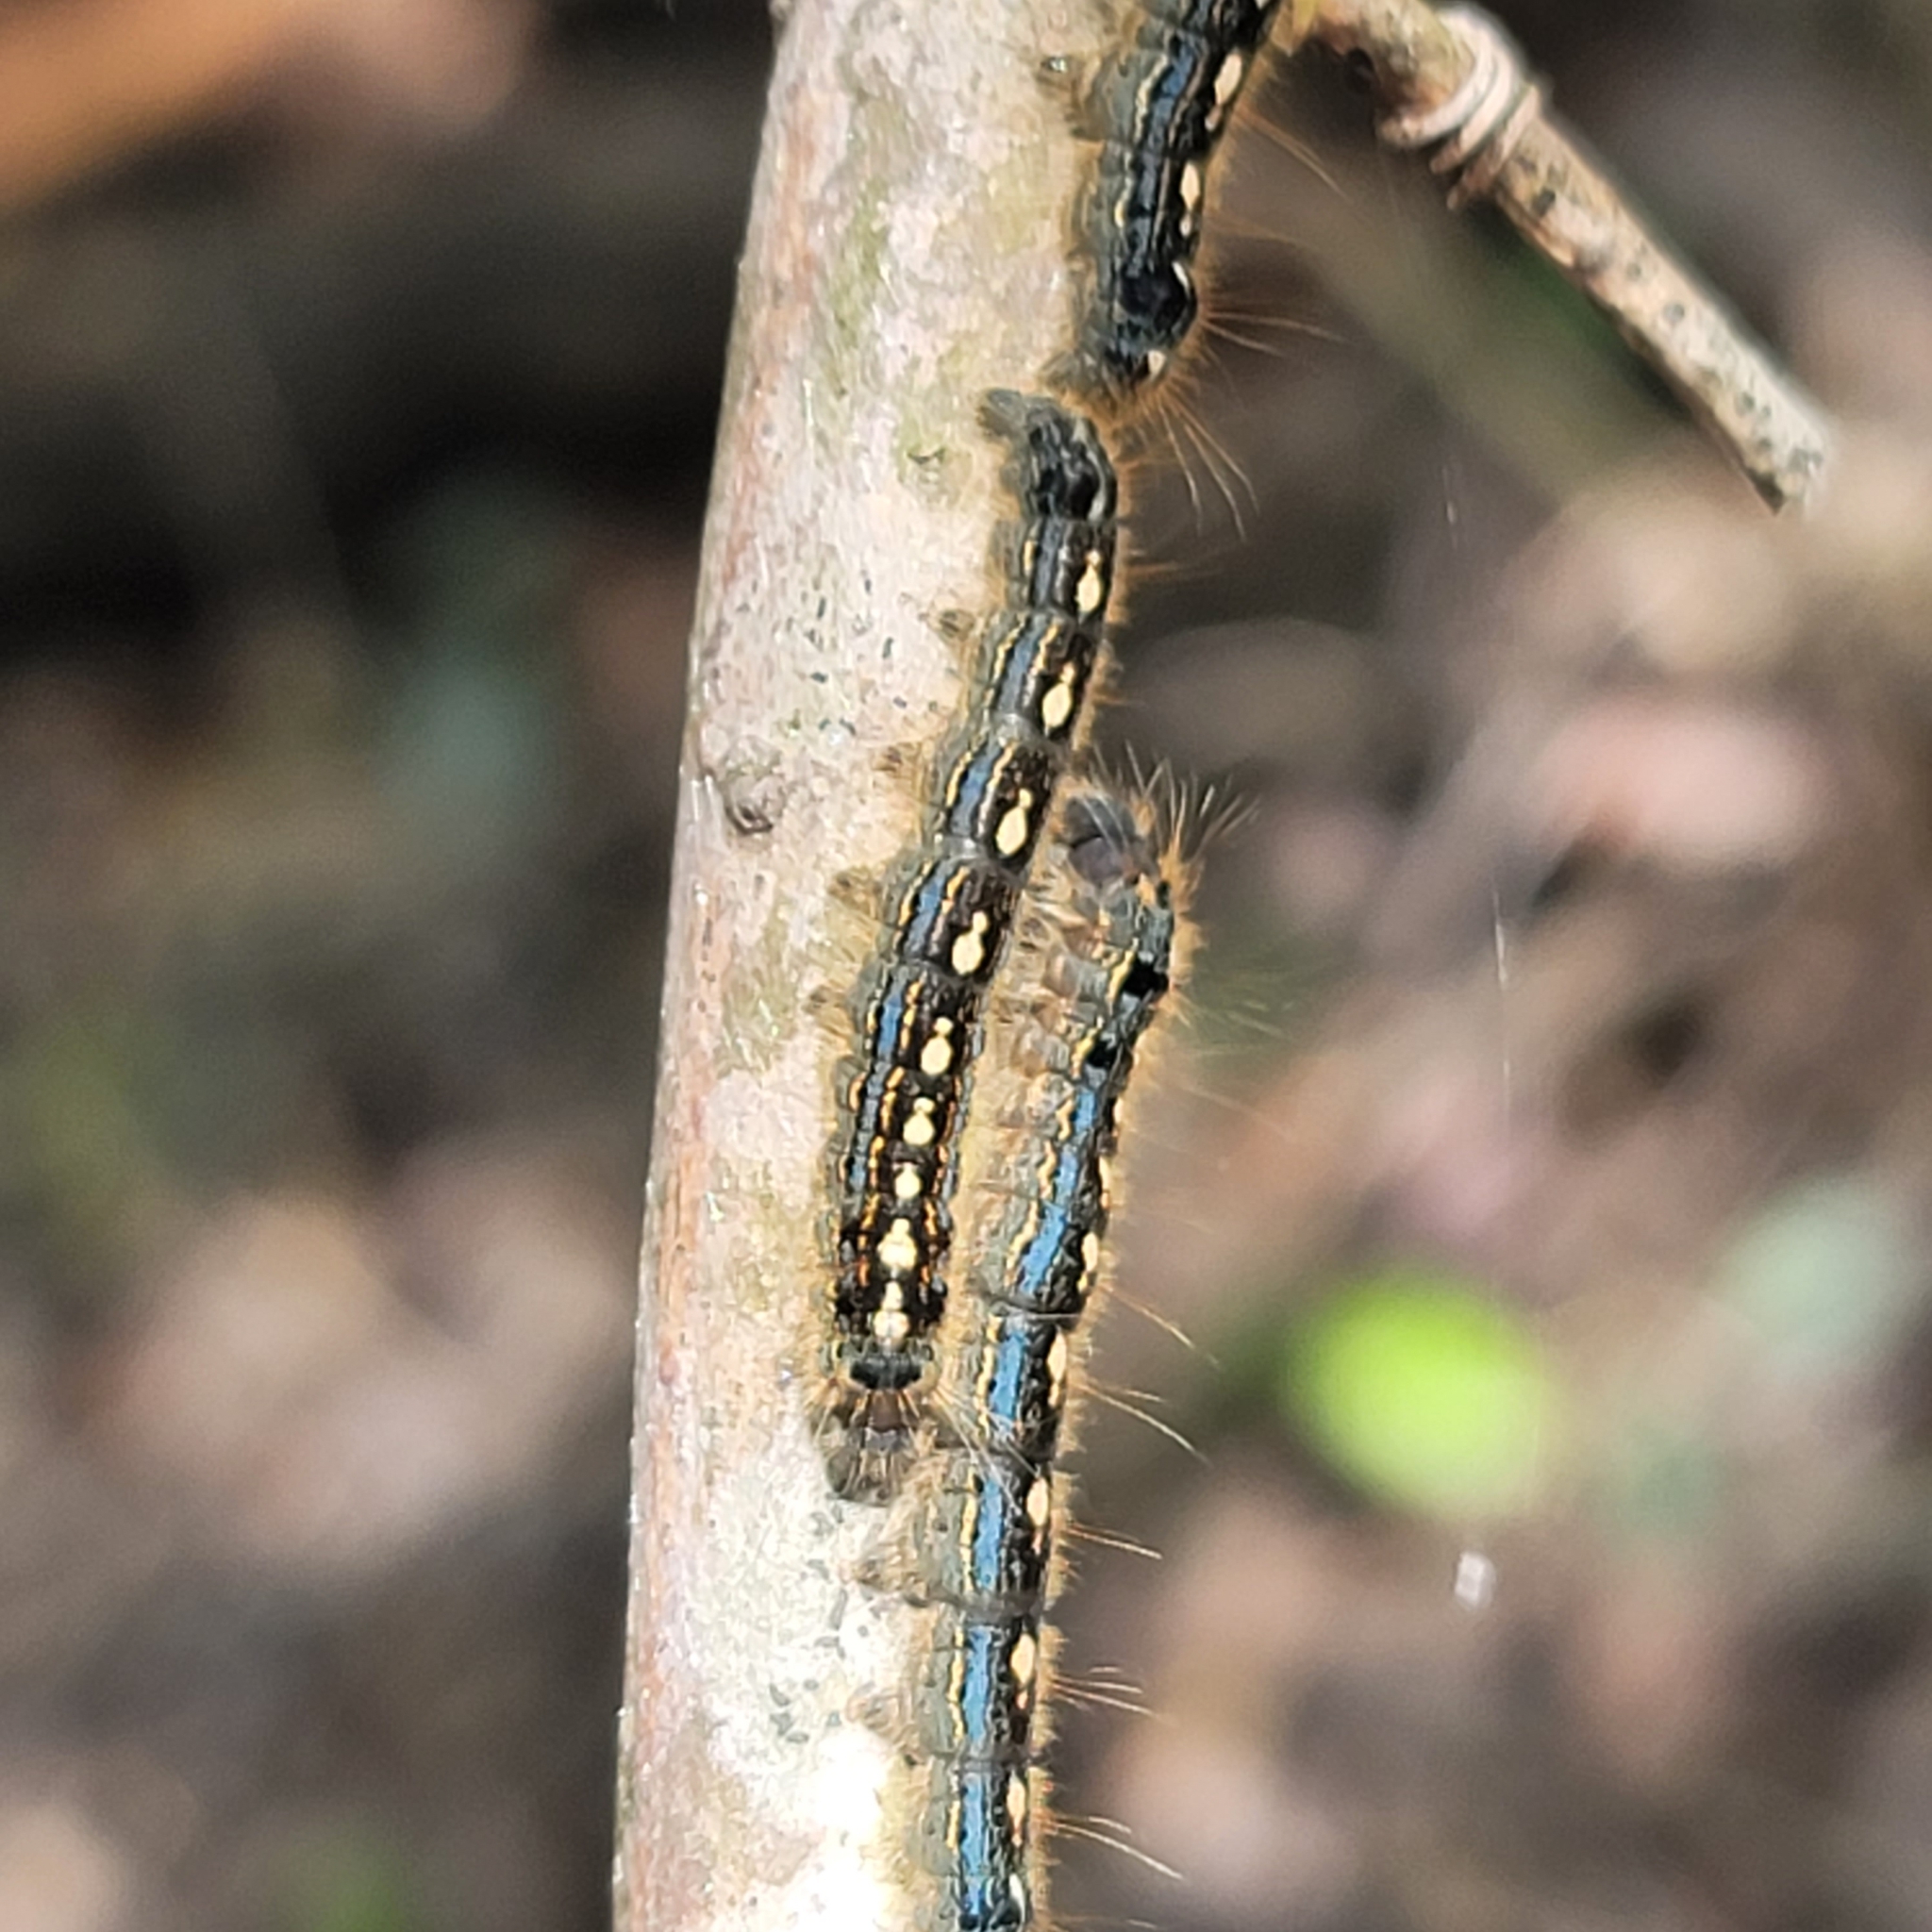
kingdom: Animalia
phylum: Arthropoda
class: Insecta
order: Lepidoptera
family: Lasiocampidae
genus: Malacosoma
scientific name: Malacosoma disstria
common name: Forest tent caterpillar
